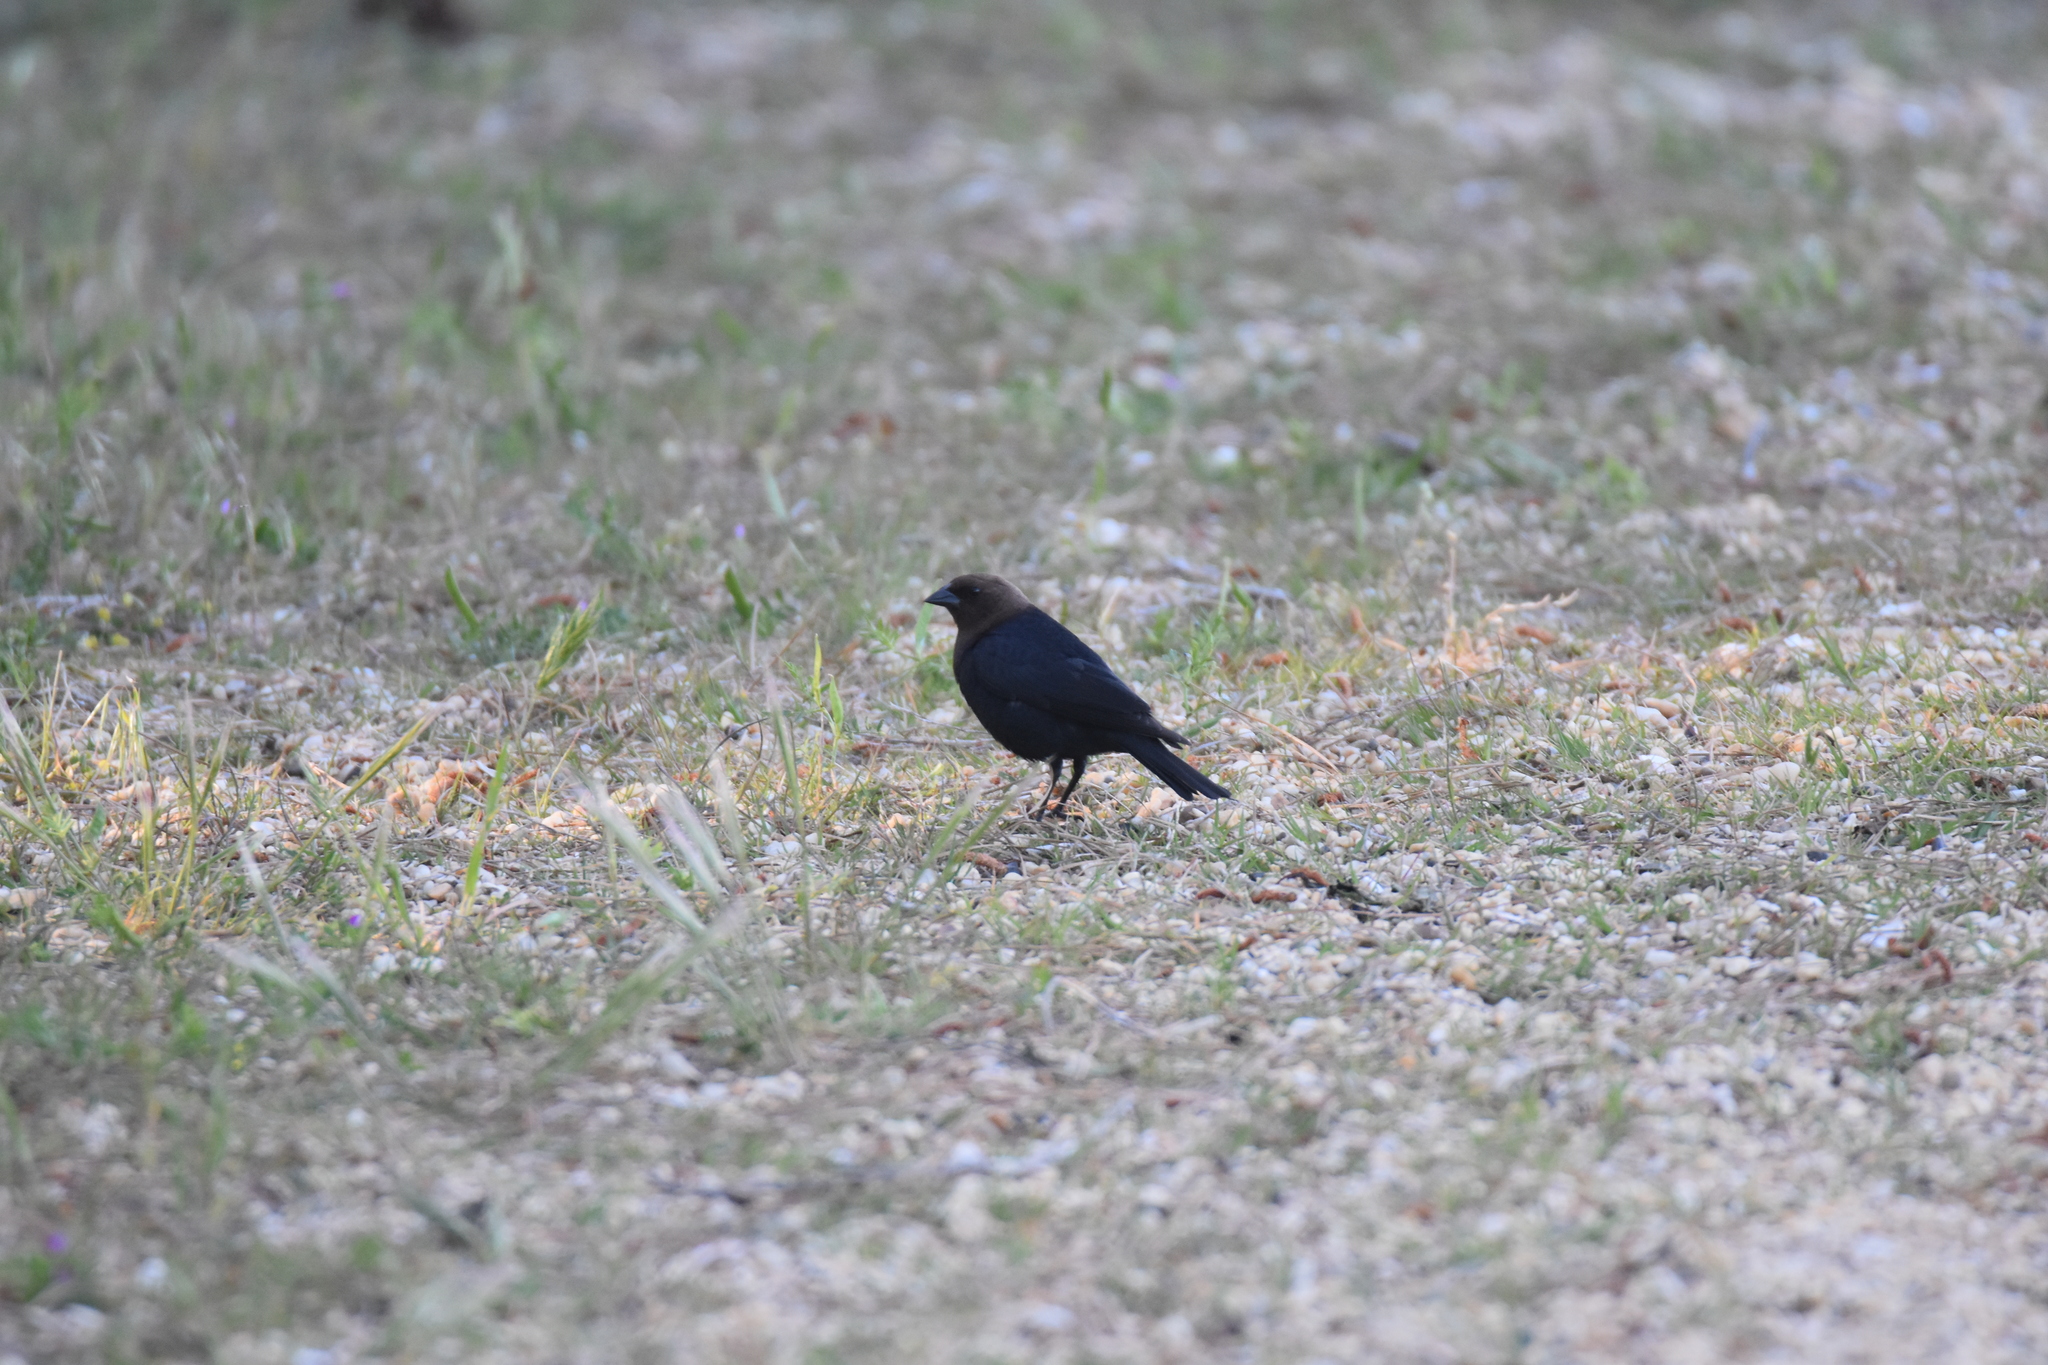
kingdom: Animalia
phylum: Chordata
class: Aves
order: Passeriformes
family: Icteridae
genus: Molothrus
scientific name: Molothrus ater
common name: Brown-headed cowbird
